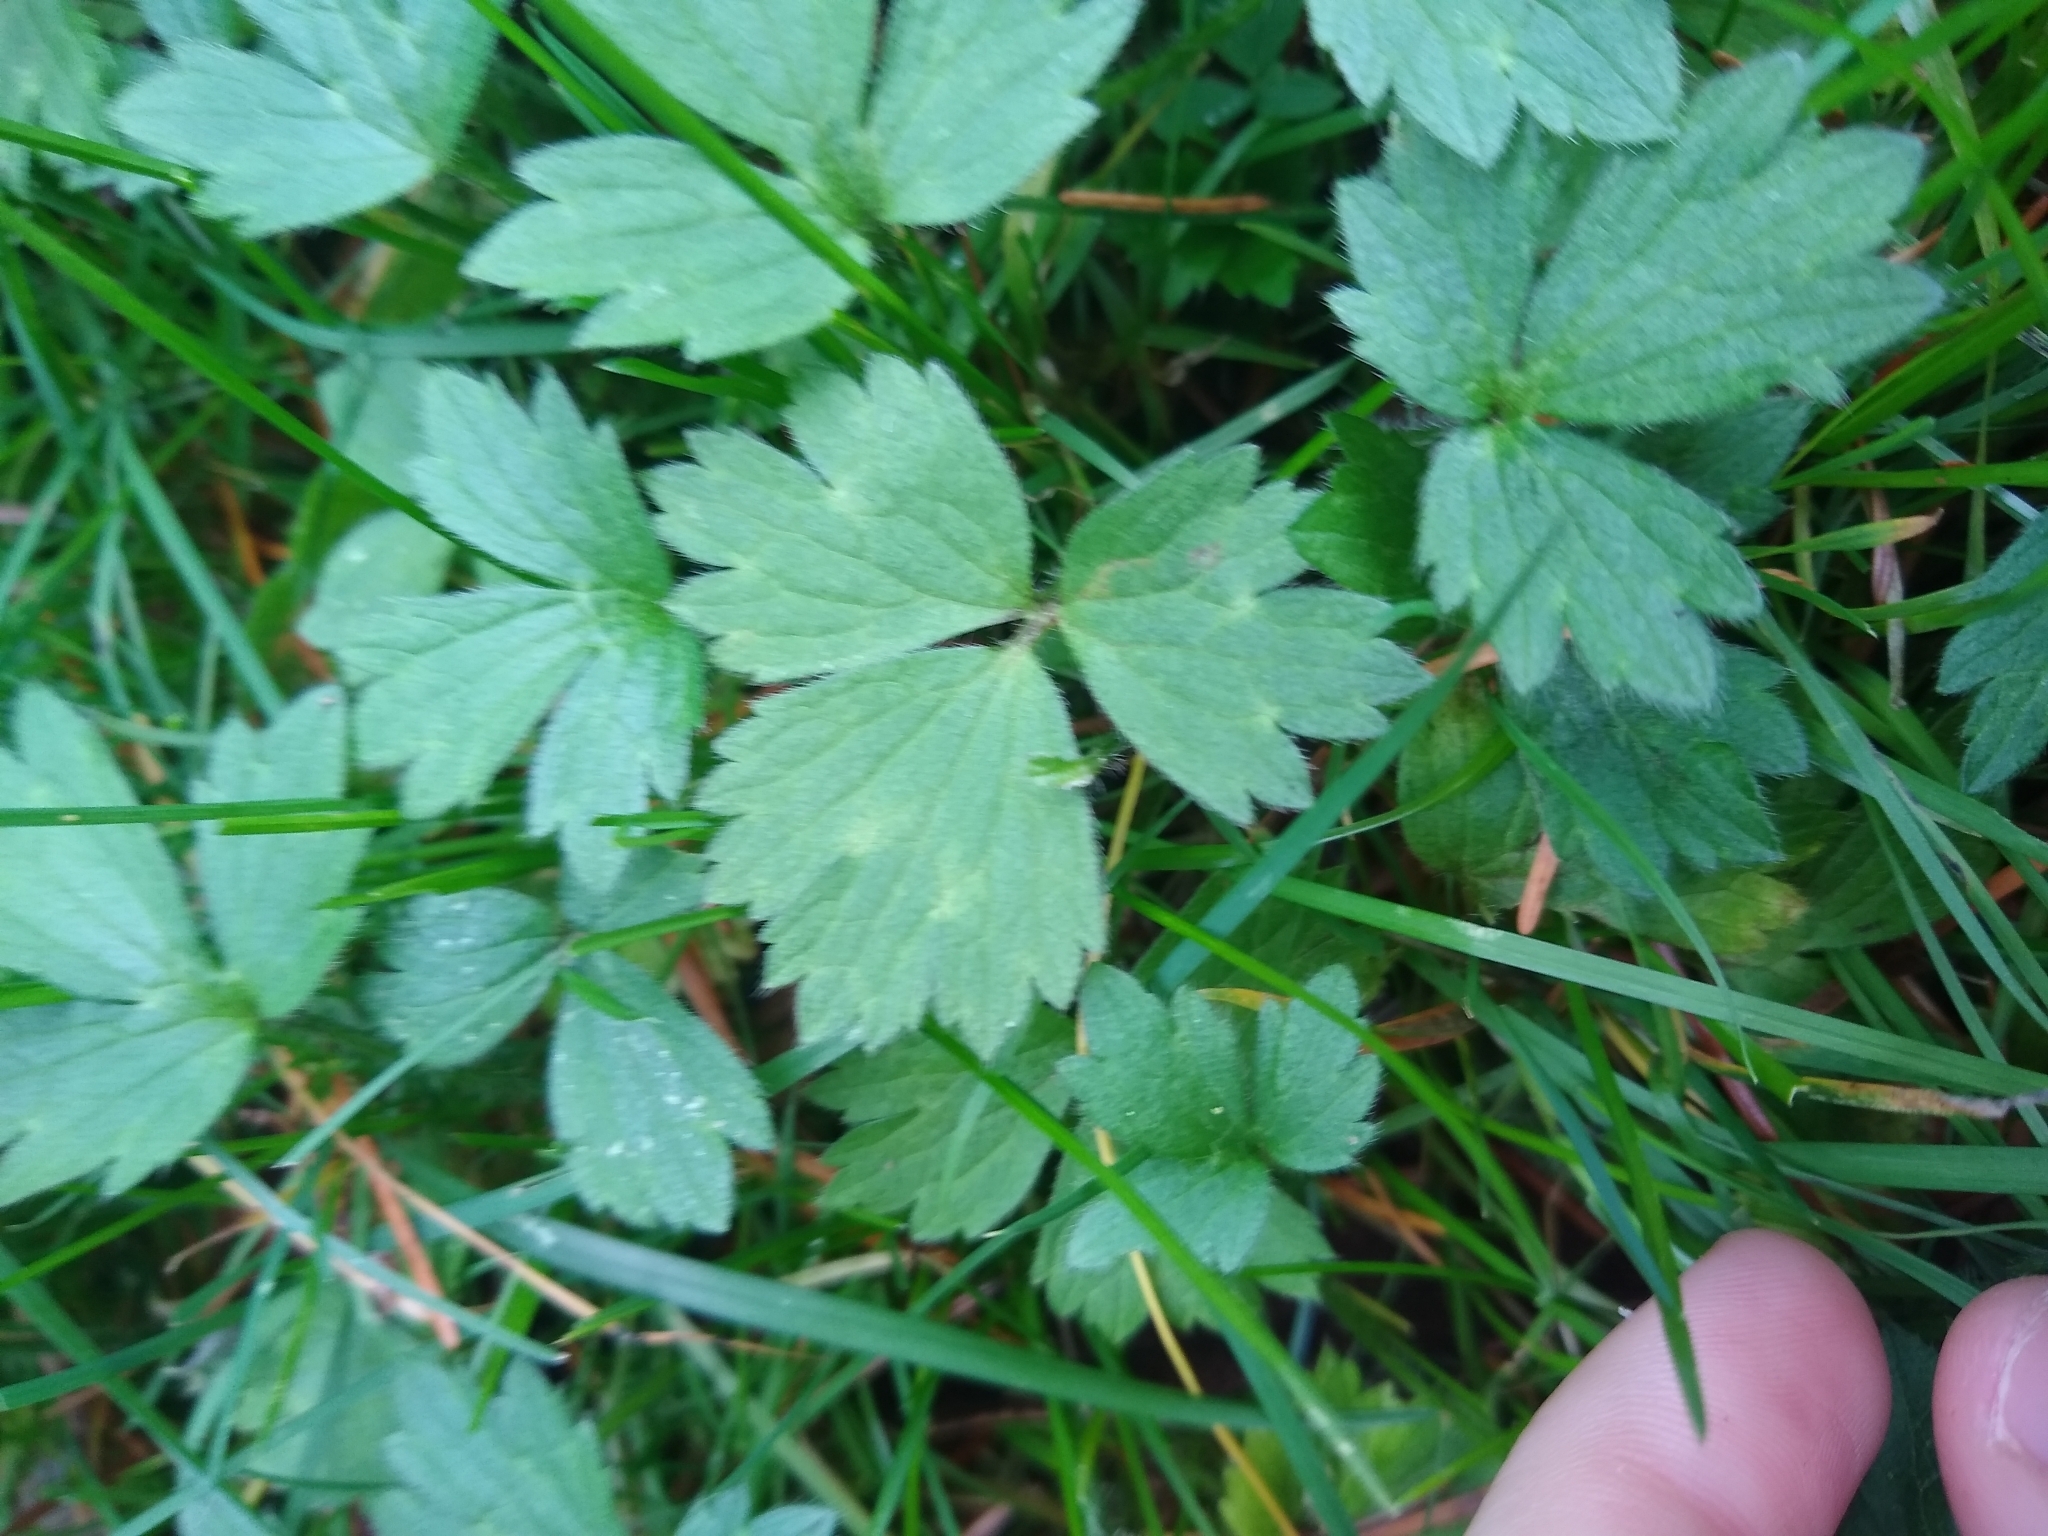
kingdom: Plantae
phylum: Tracheophyta
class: Magnoliopsida
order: Ranunculales
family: Ranunculaceae
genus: Ranunculus
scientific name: Ranunculus repens
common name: Creeping buttercup
